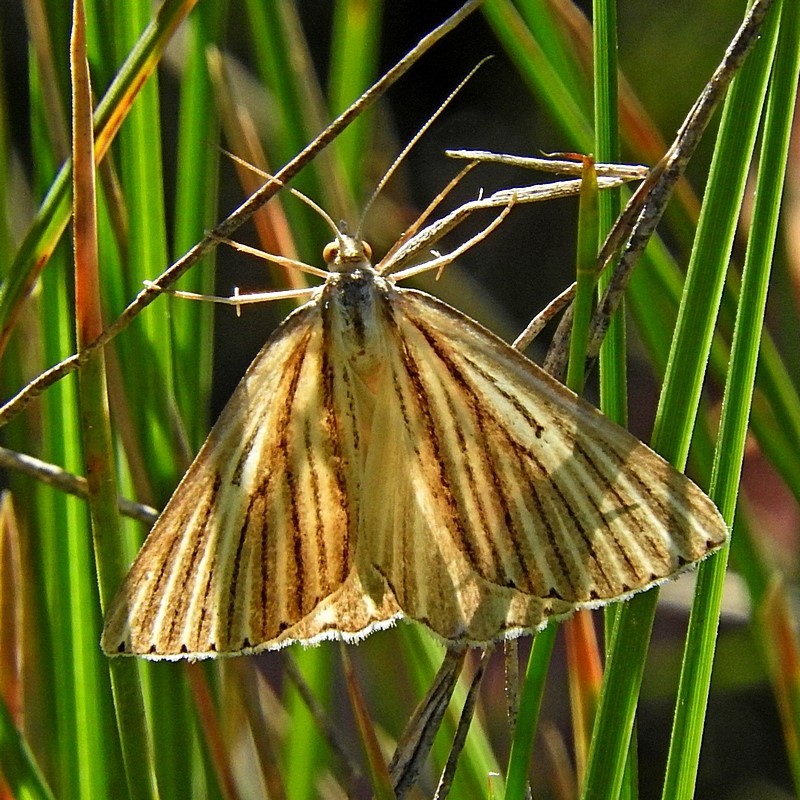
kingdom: Animalia
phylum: Arthropoda
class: Insecta
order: Lepidoptera
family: Geometridae
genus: Amelora
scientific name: Amelora leucaniata
